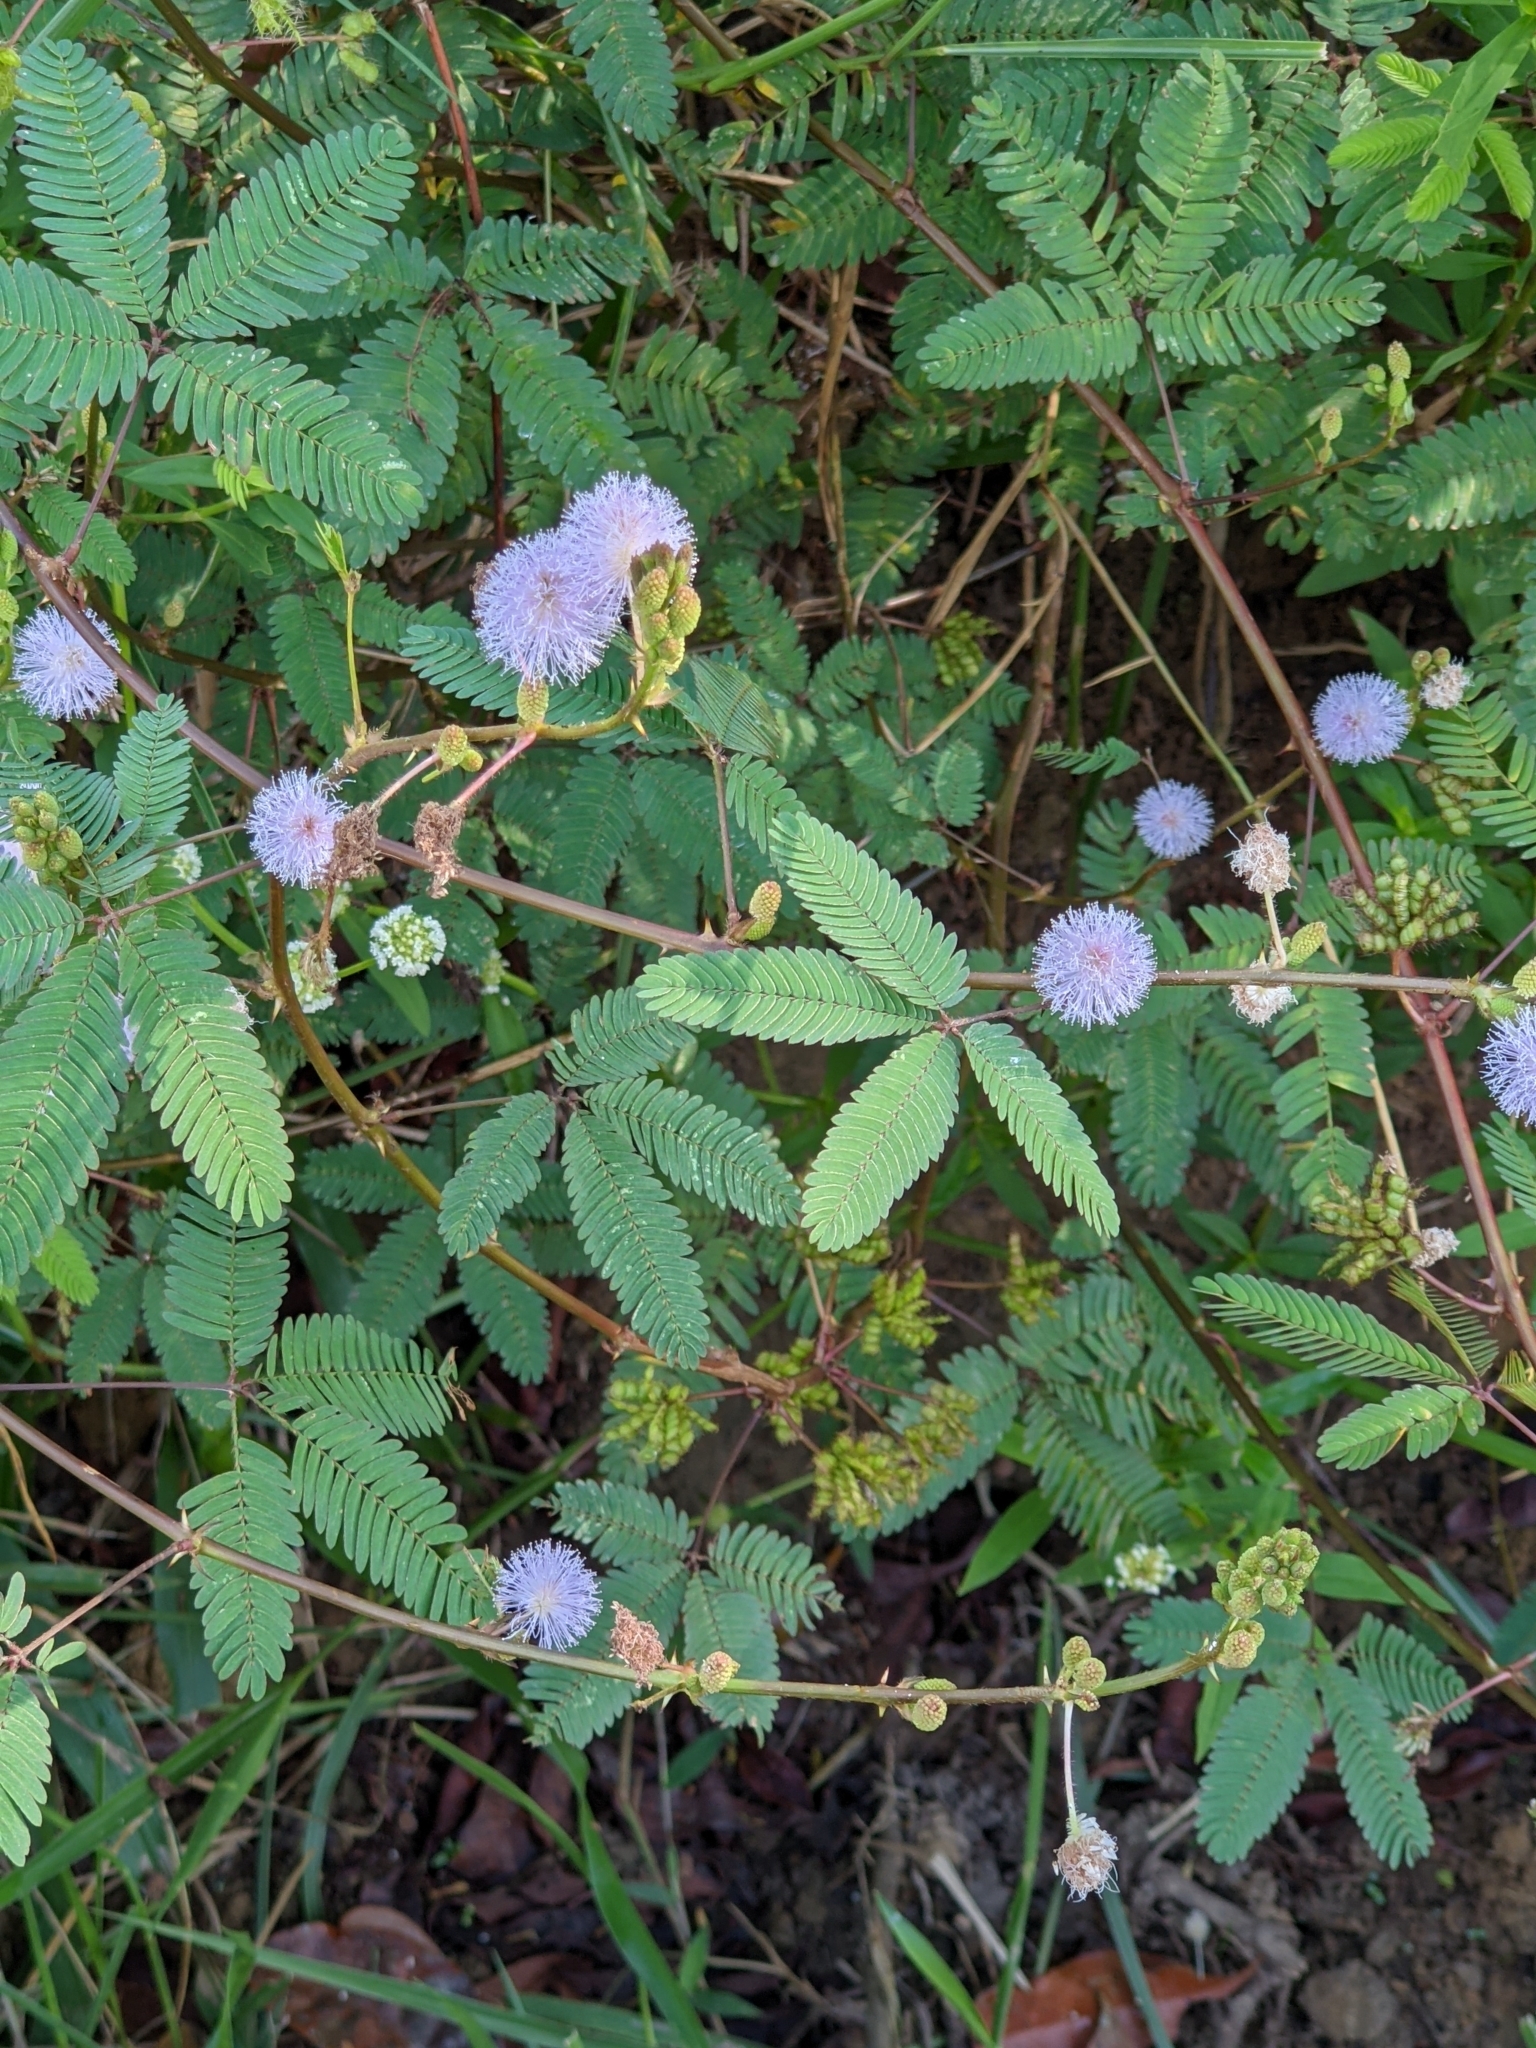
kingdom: Plantae
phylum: Tracheophyta
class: Magnoliopsida
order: Fabales
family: Fabaceae
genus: Mimosa
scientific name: Mimosa pudica
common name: Sensitive plant
